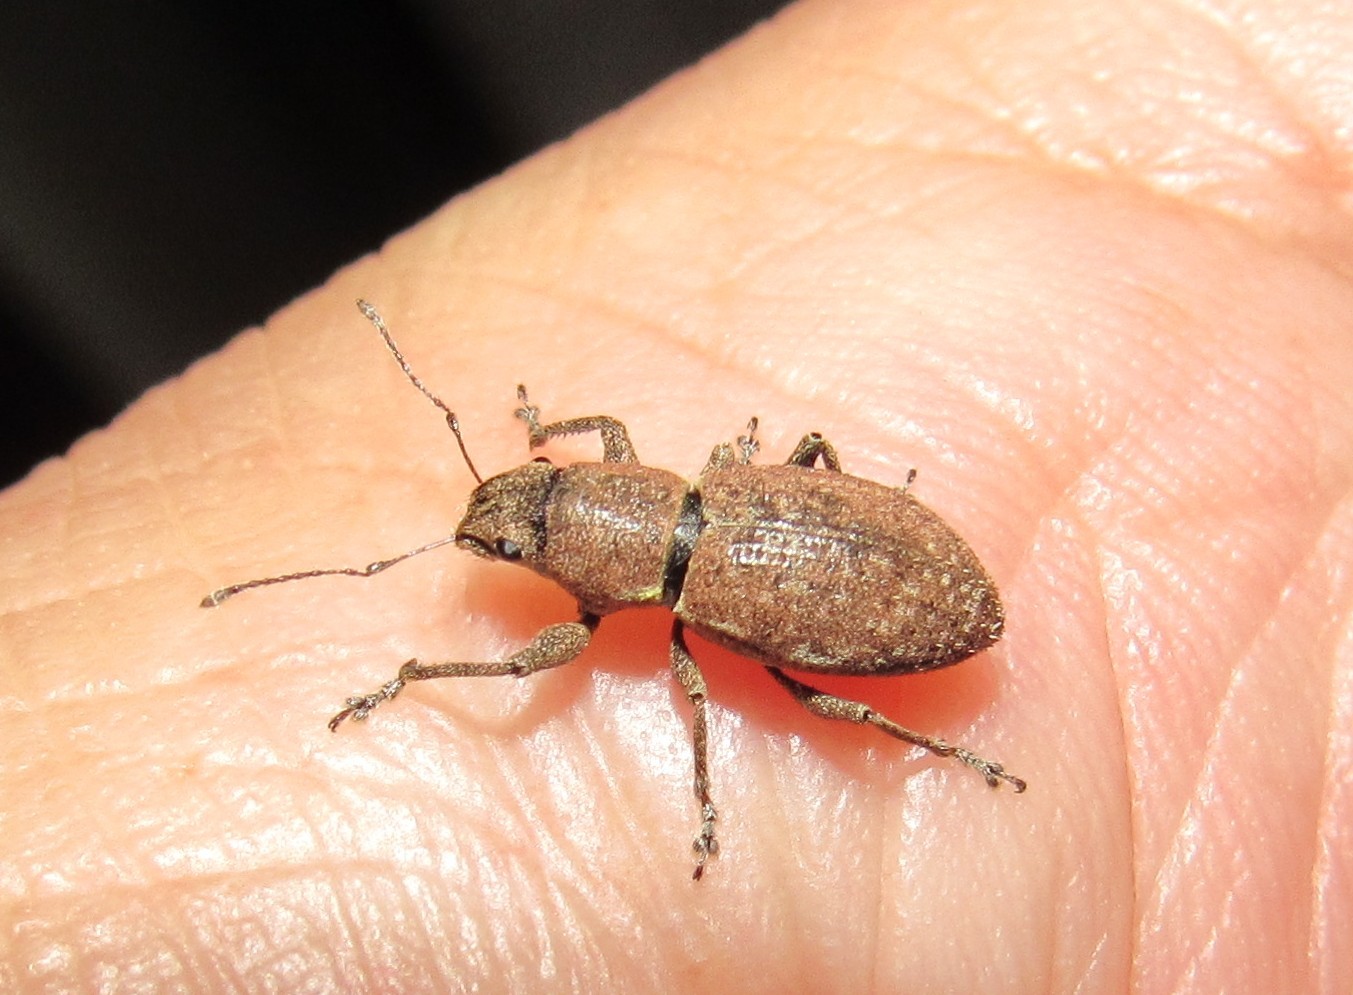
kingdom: Animalia
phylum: Arthropoda
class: Insecta
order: Coleoptera
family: Curculionidae
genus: Naupactus
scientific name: Naupactus cervinus
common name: Fuller rose beetle
